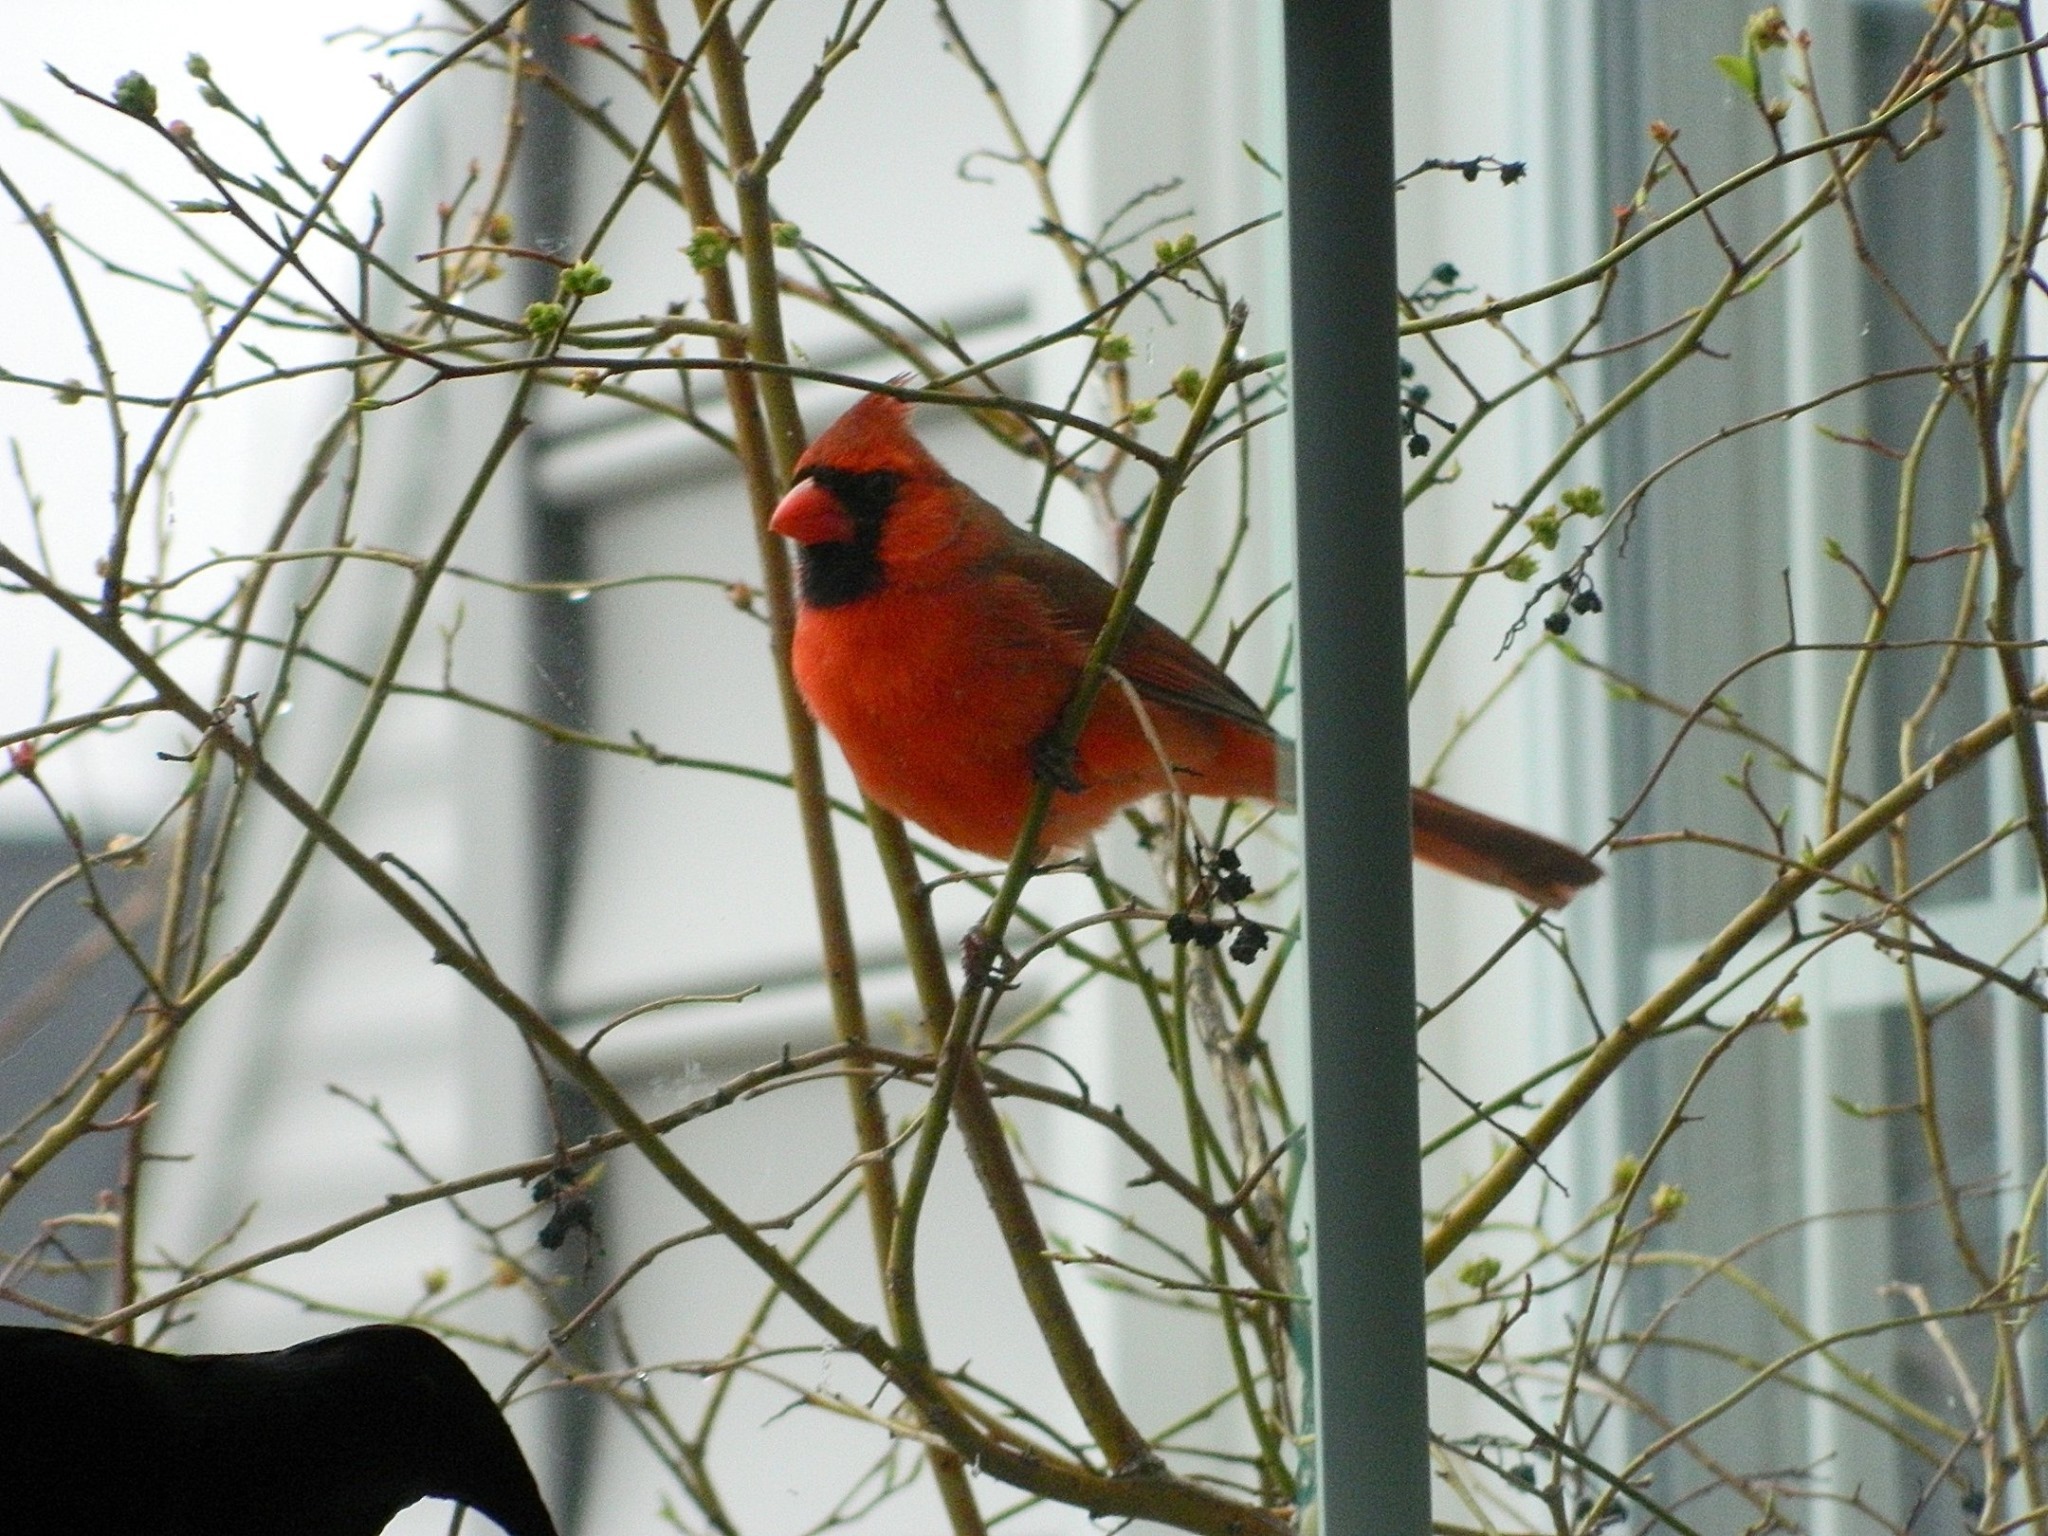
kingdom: Animalia
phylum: Chordata
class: Aves
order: Passeriformes
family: Cardinalidae
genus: Cardinalis
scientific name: Cardinalis cardinalis
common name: Northern cardinal
